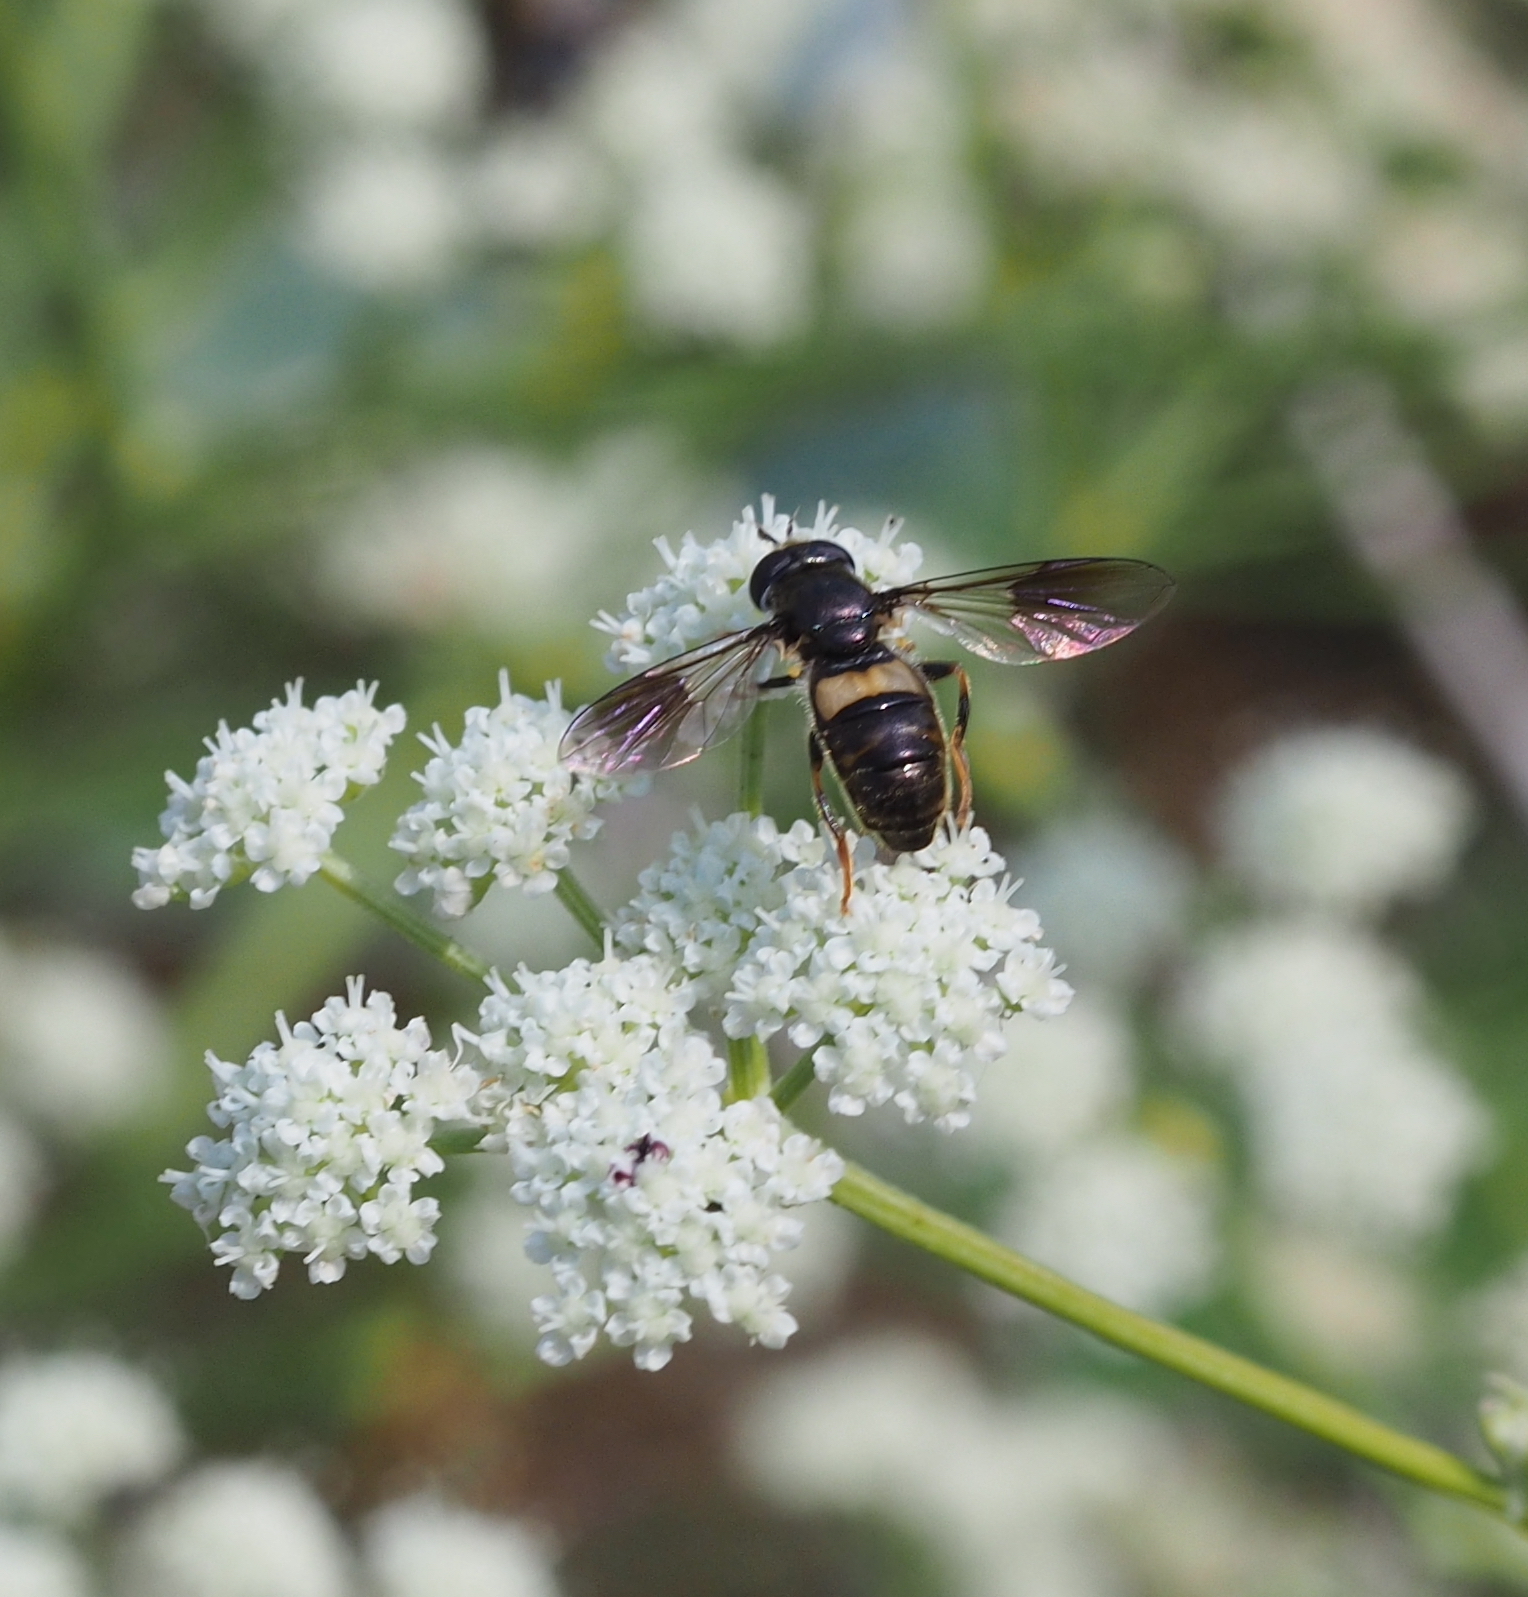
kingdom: Animalia
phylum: Arthropoda
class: Insecta
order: Diptera
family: Syrphidae
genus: Pipiza
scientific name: Pipiza festiva
